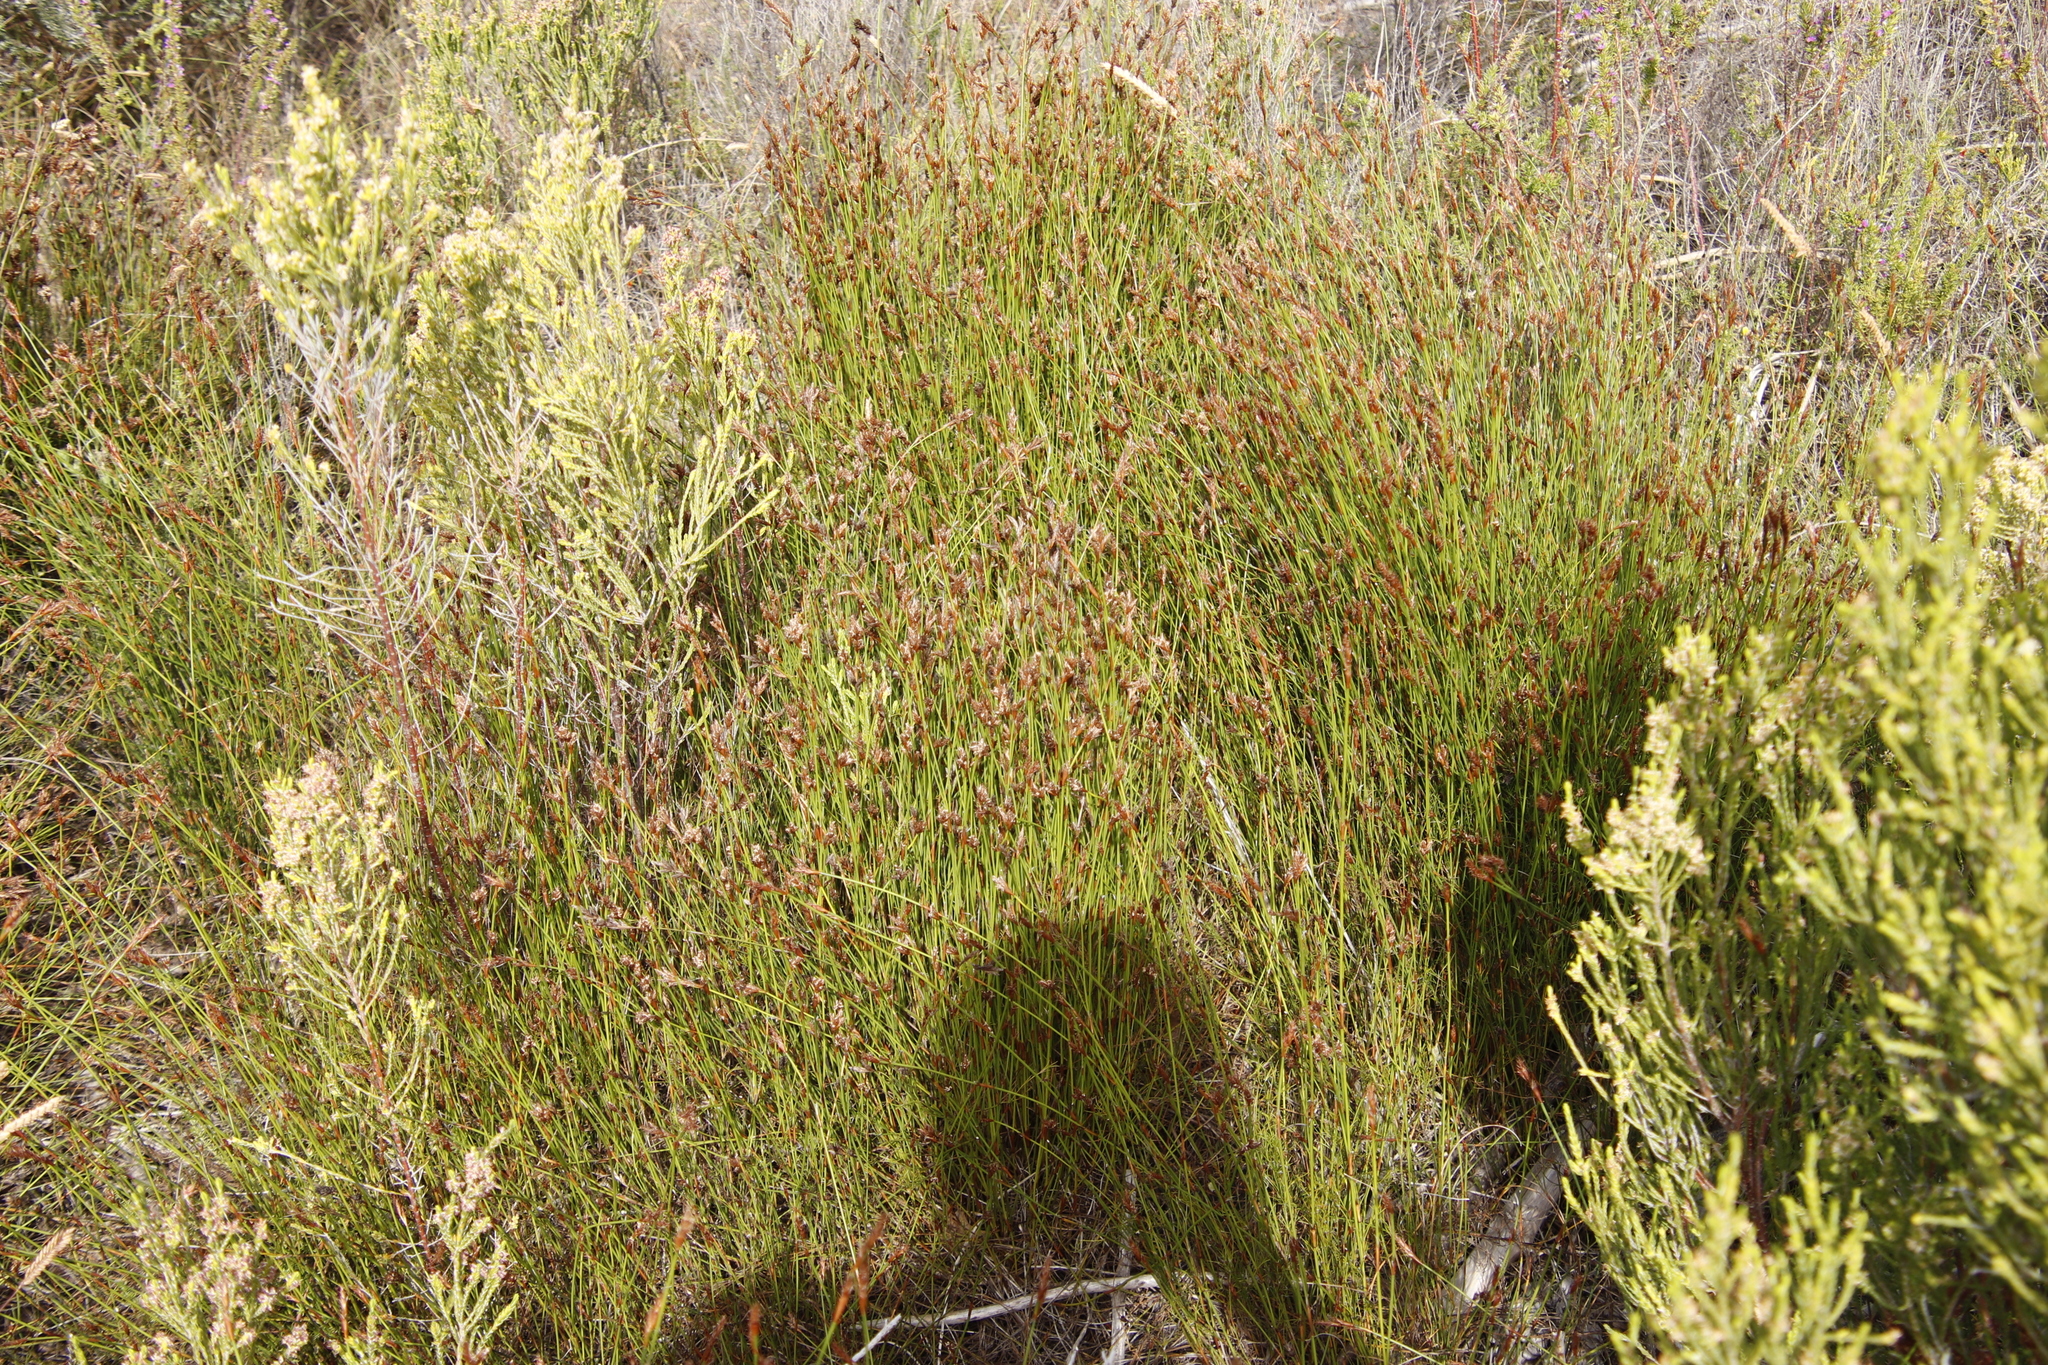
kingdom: Plantae
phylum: Tracheophyta
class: Liliopsida
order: Poales
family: Restionaceae
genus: Restio
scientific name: Restio capensis
